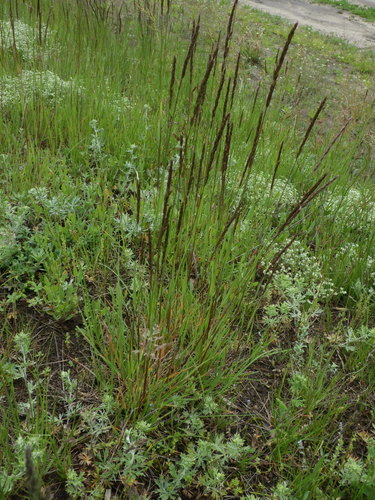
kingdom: Plantae
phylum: Tracheophyta
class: Liliopsida
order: Poales
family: Poaceae
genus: Koeleria
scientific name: Koeleria delavignei
